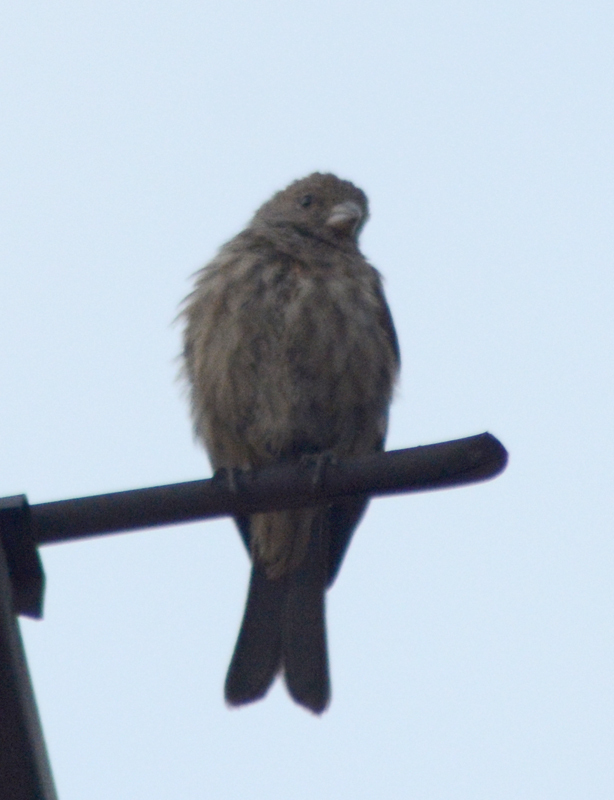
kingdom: Animalia
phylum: Chordata
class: Aves
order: Passeriformes
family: Fringillidae
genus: Haemorhous
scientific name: Haemorhous mexicanus
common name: House finch
